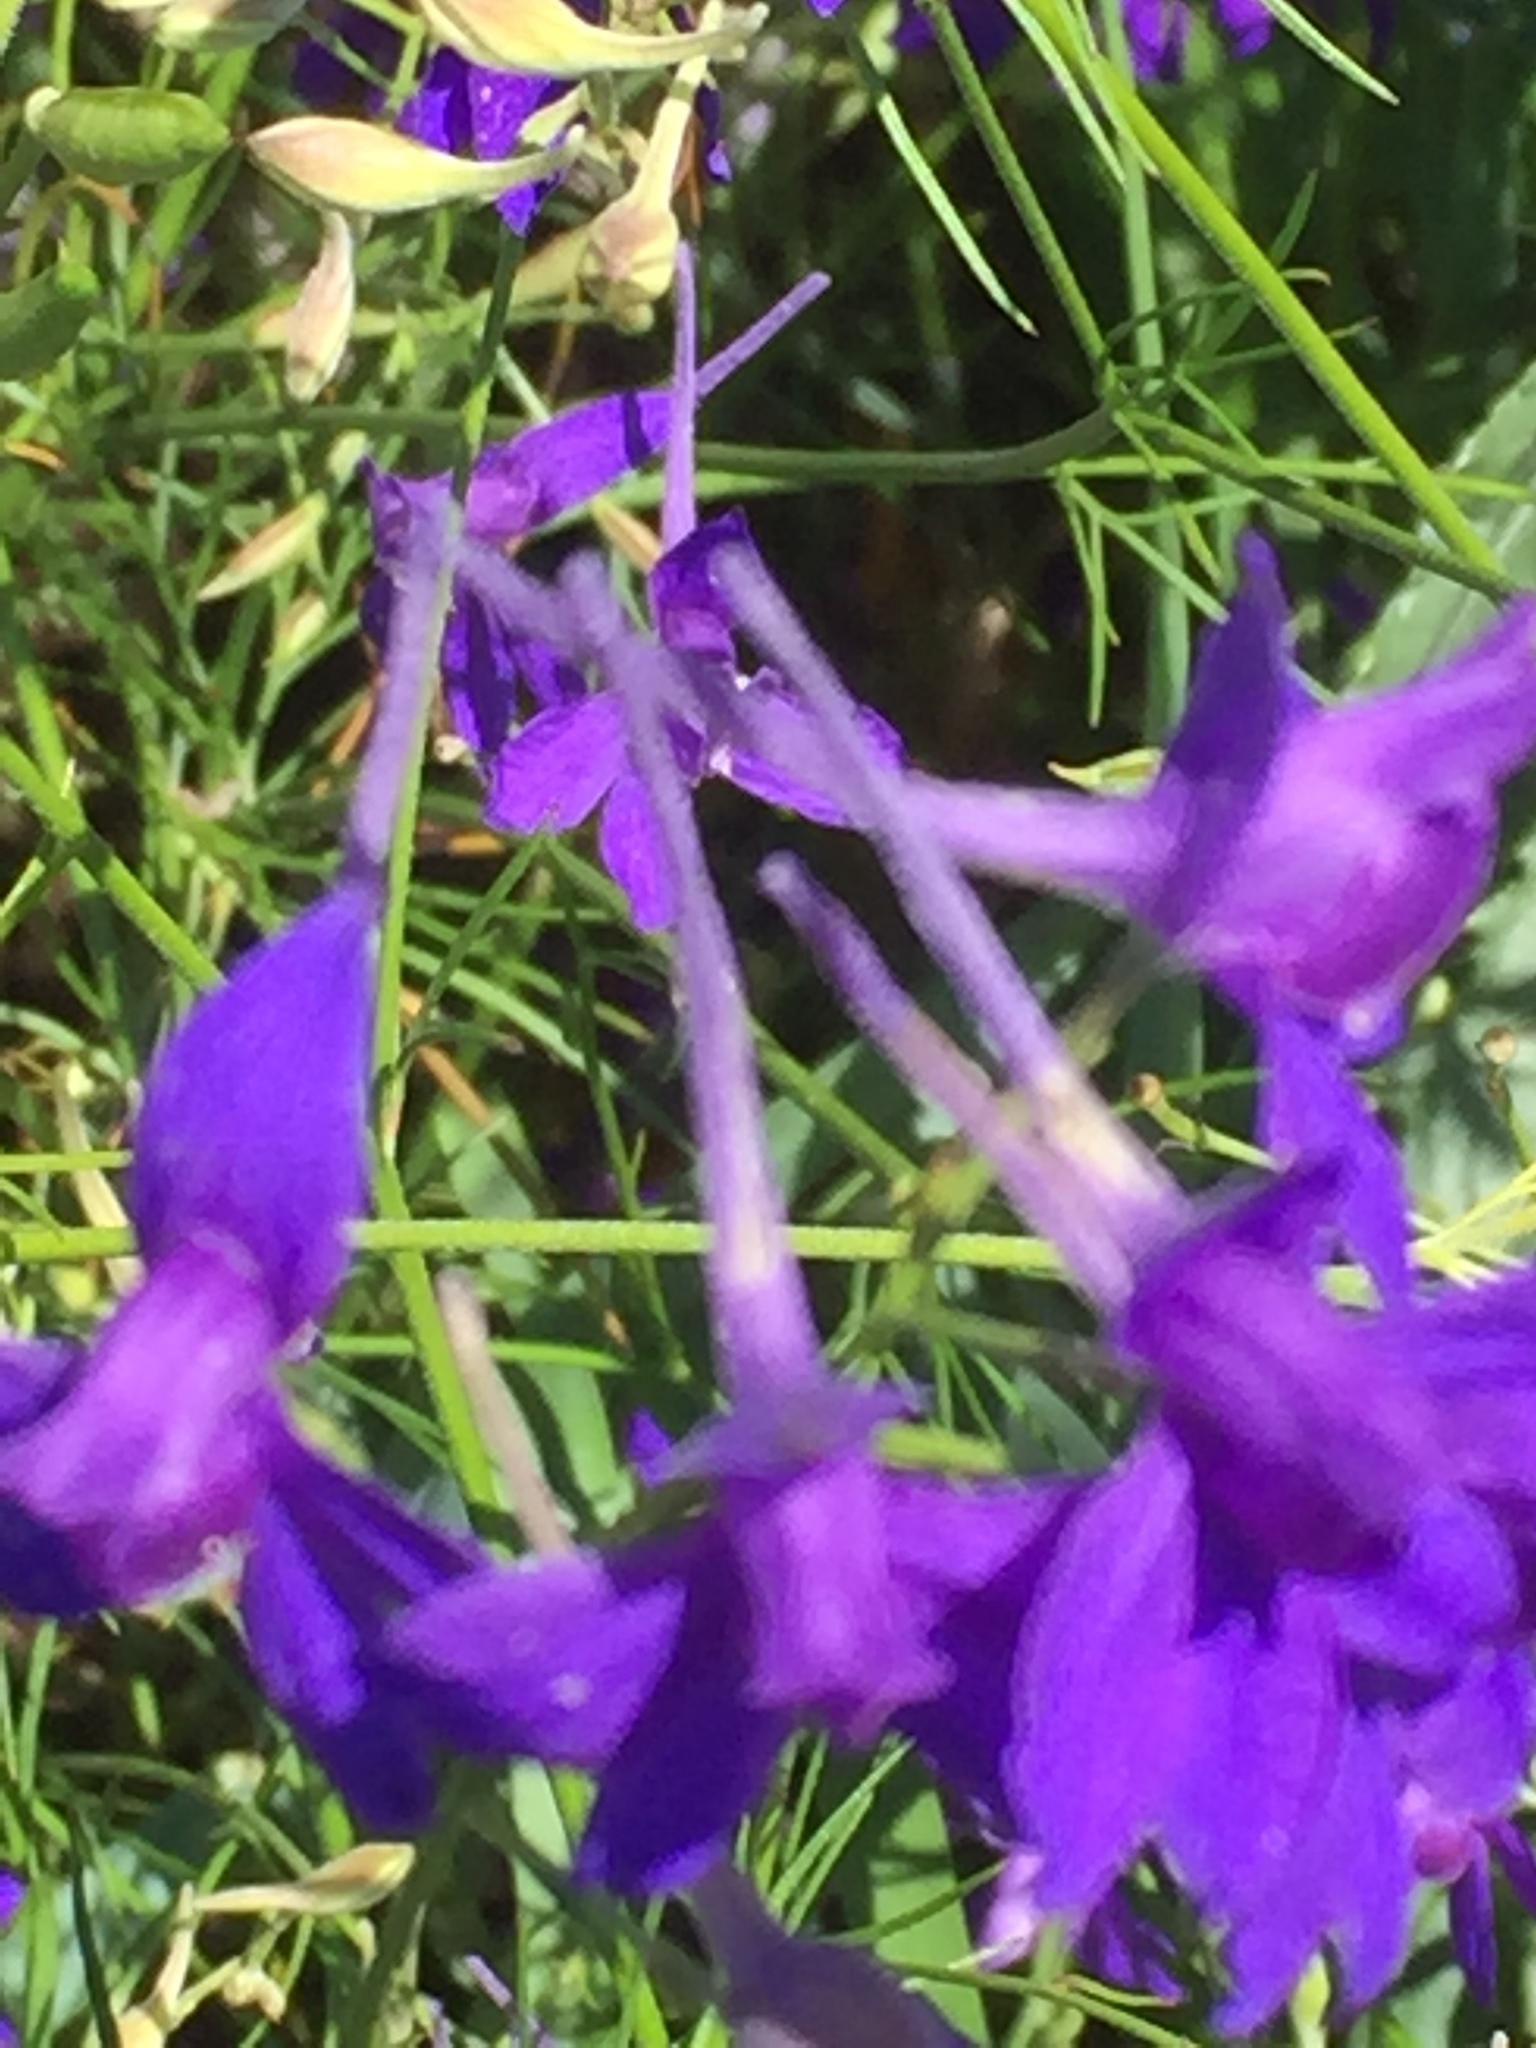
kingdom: Plantae
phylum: Tracheophyta
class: Magnoliopsida
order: Ranunculales
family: Ranunculaceae
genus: Delphinium
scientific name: Delphinium consolida
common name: Branching larkspur
